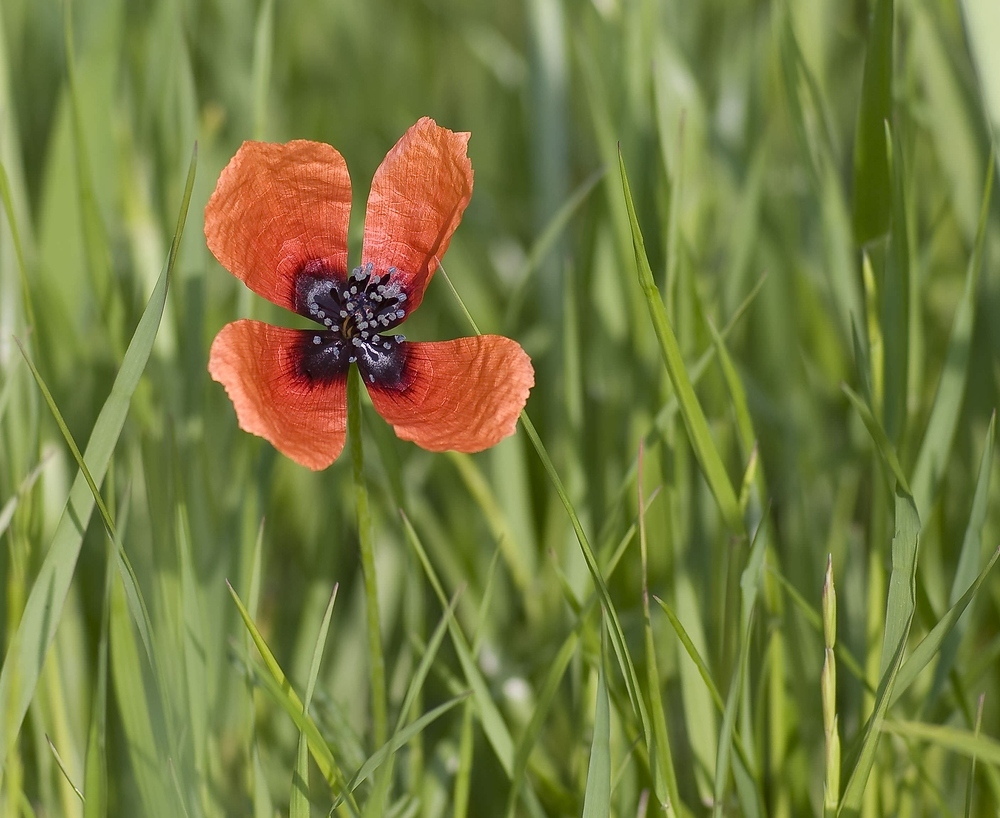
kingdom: Plantae
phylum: Tracheophyta
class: Magnoliopsida
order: Ranunculales
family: Papaveraceae
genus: Roemeria
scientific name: Roemeria argemone
